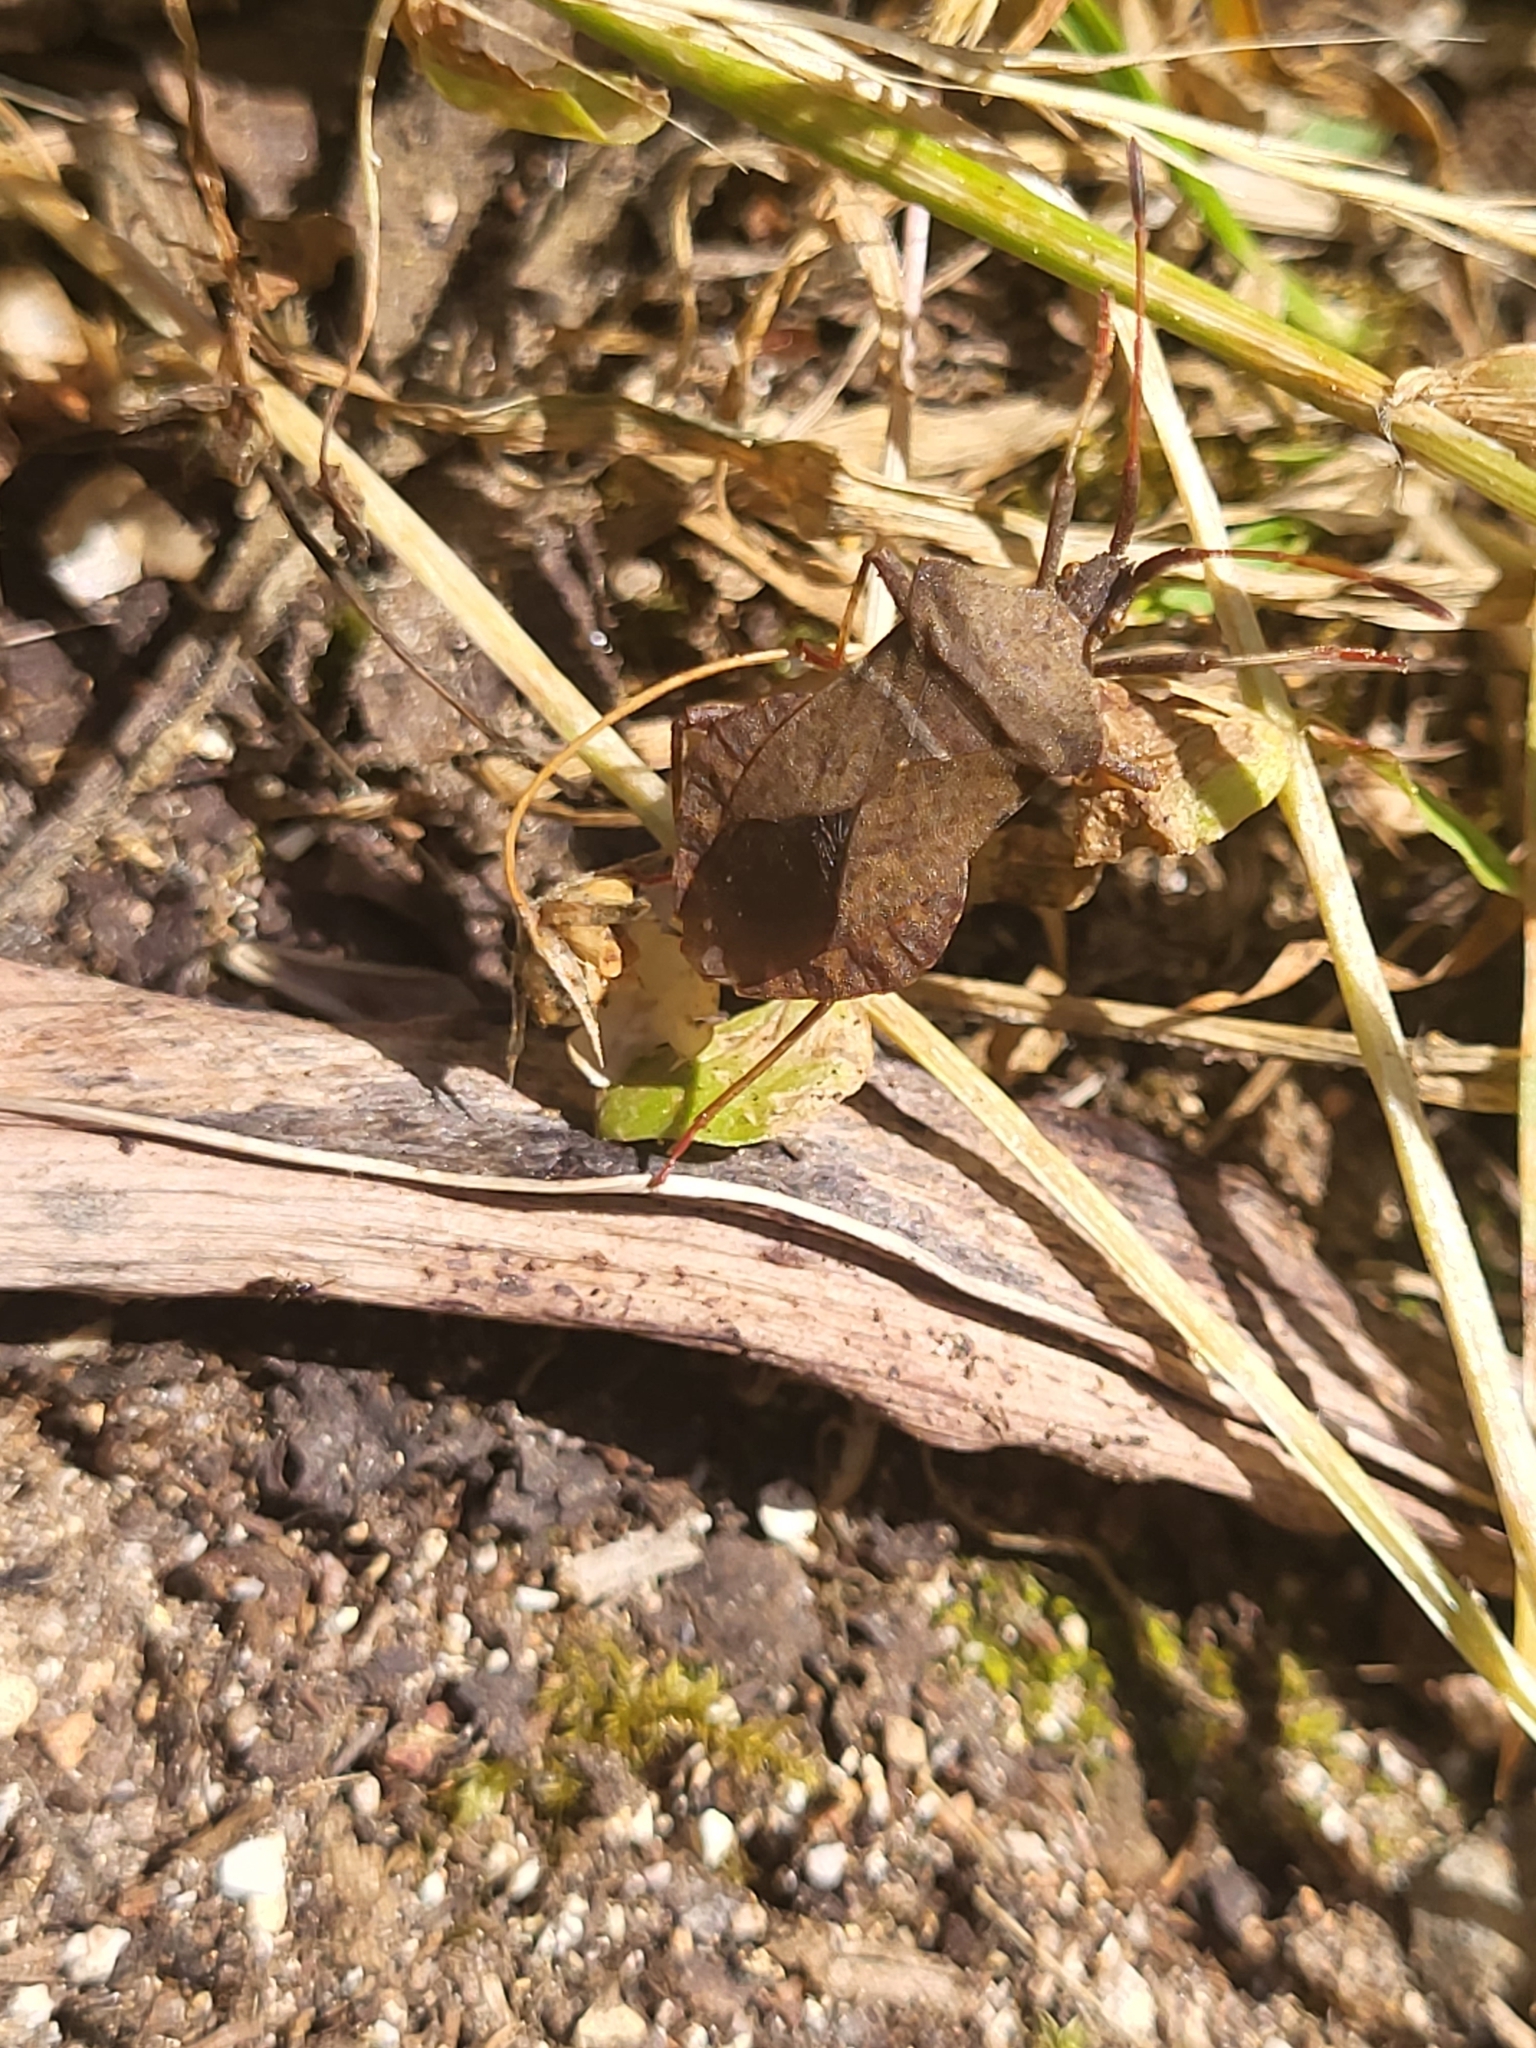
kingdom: Animalia
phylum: Arthropoda
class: Insecta
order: Hemiptera
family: Coreidae
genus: Coreus
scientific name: Coreus marginatus
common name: Dock bug
